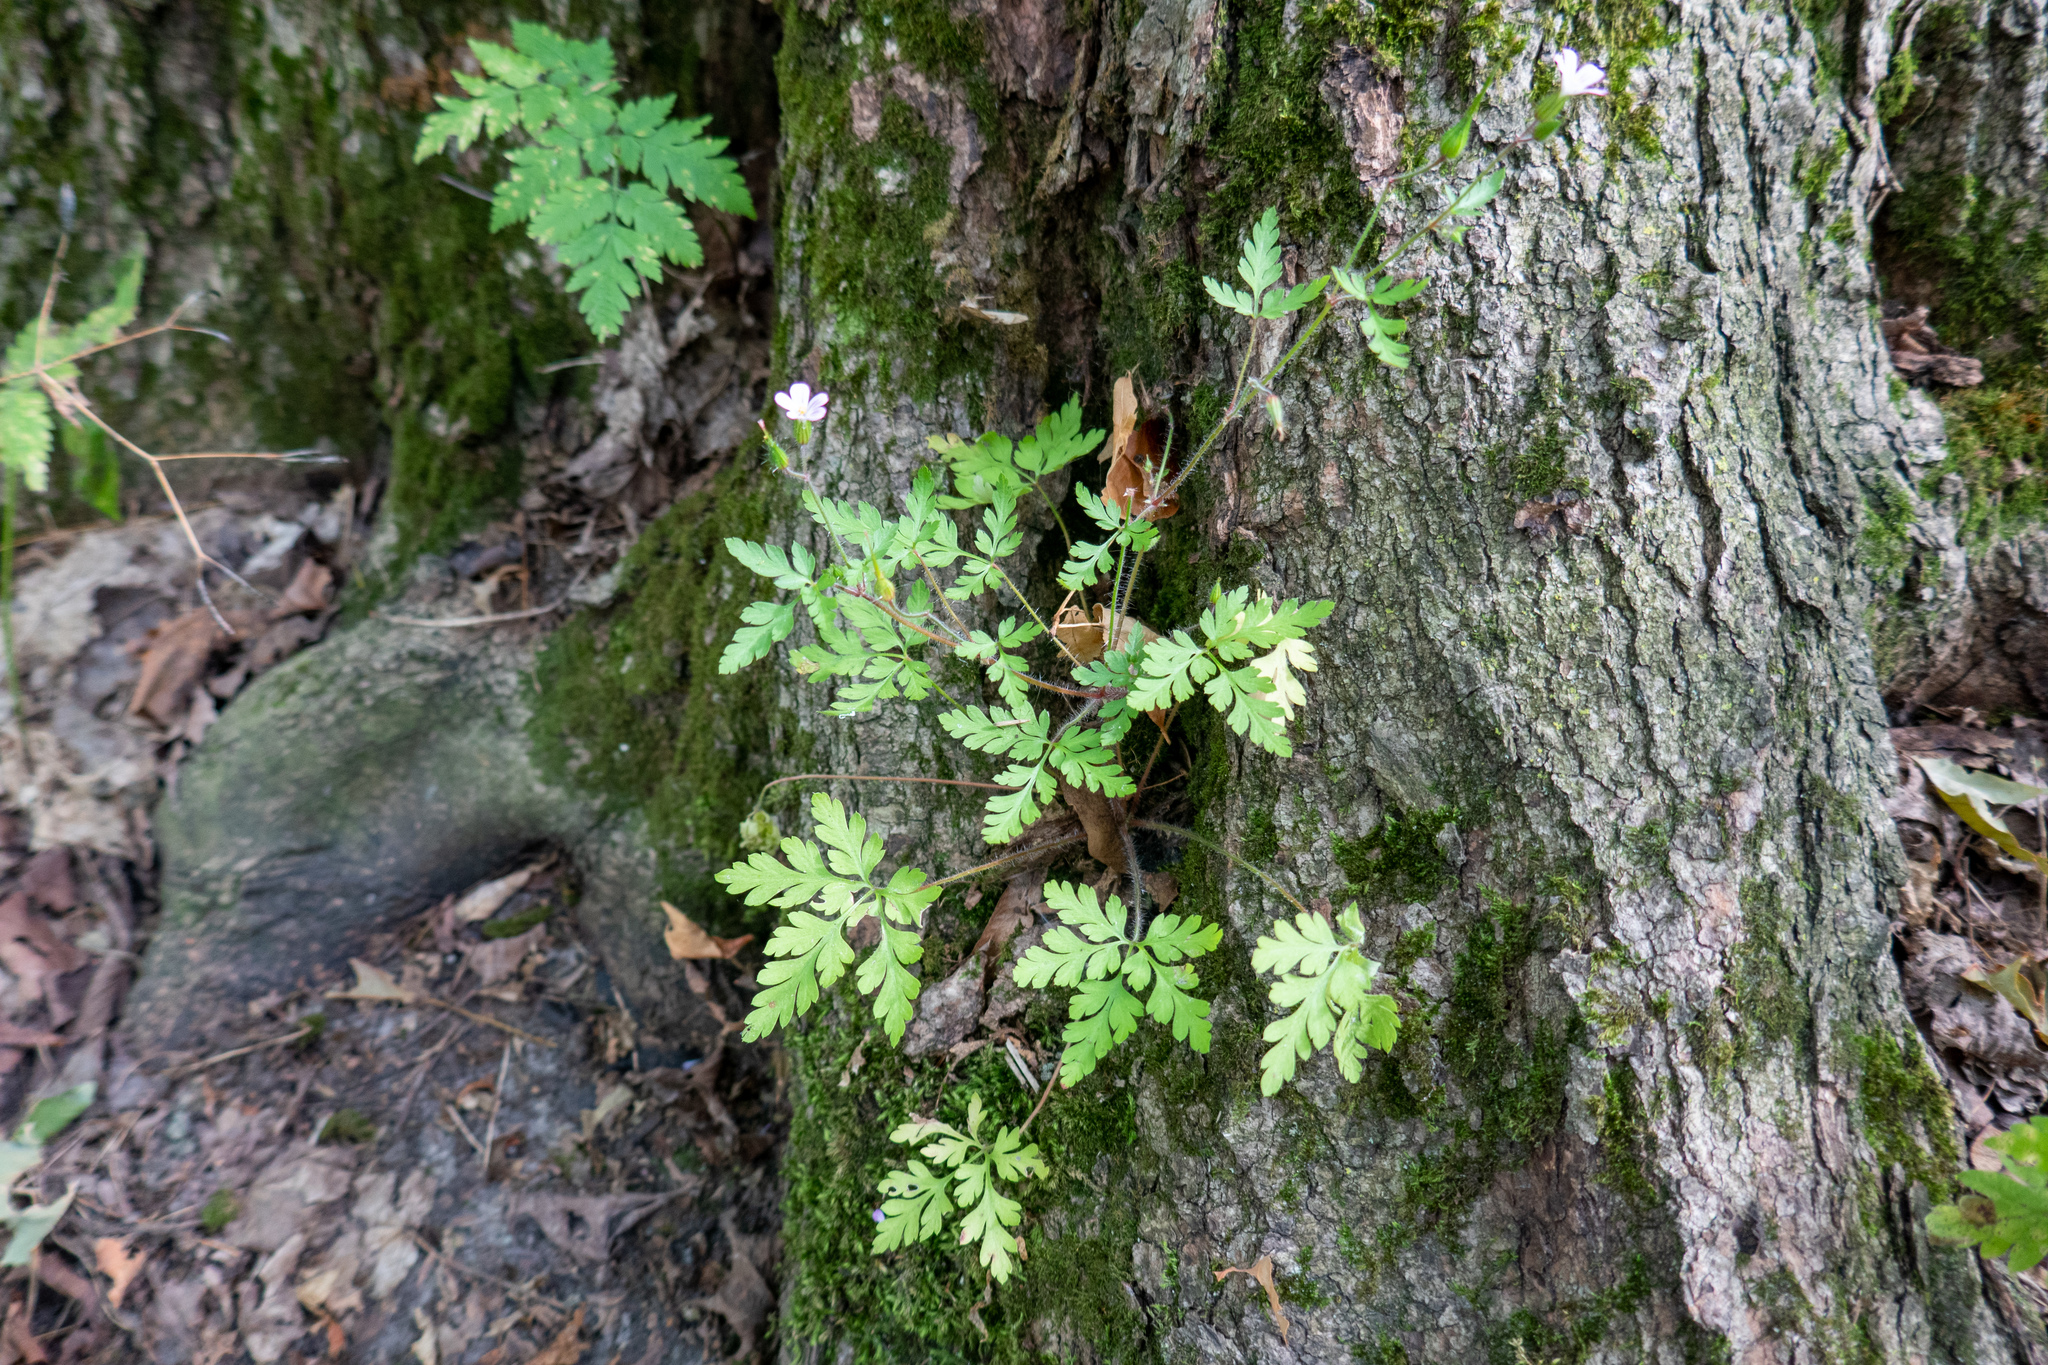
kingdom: Plantae
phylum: Tracheophyta
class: Magnoliopsida
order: Geraniales
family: Geraniaceae
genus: Geranium
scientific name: Geranium robertianum
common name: Herb-robert
